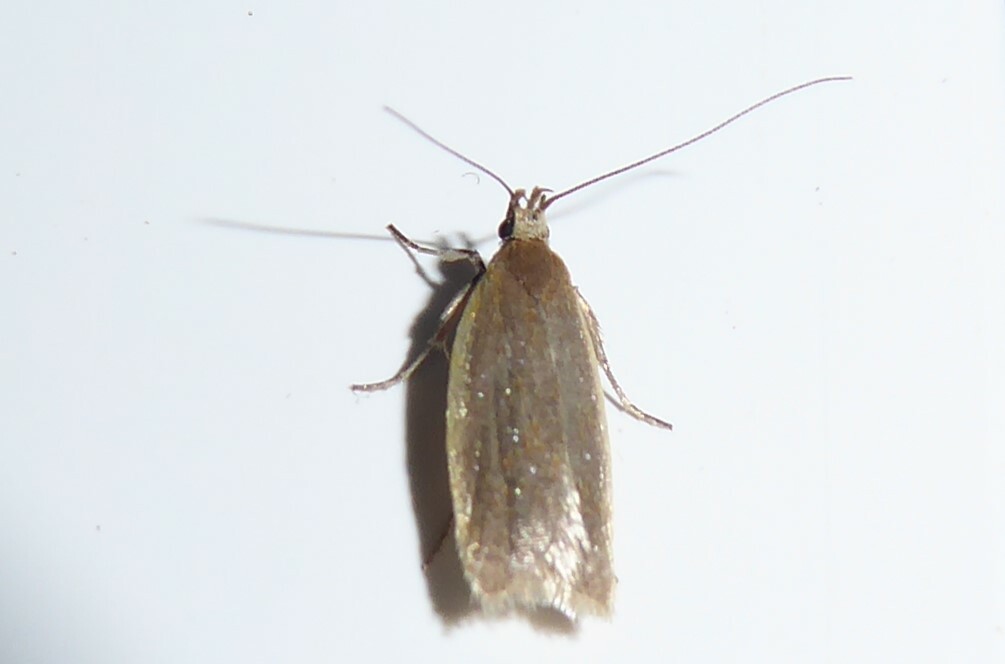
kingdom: Animalia
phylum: Arthropoda
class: Insecta
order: Lepidoptera
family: Oecophoridae
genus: Gymnobathra
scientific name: Gymnobathra parca
